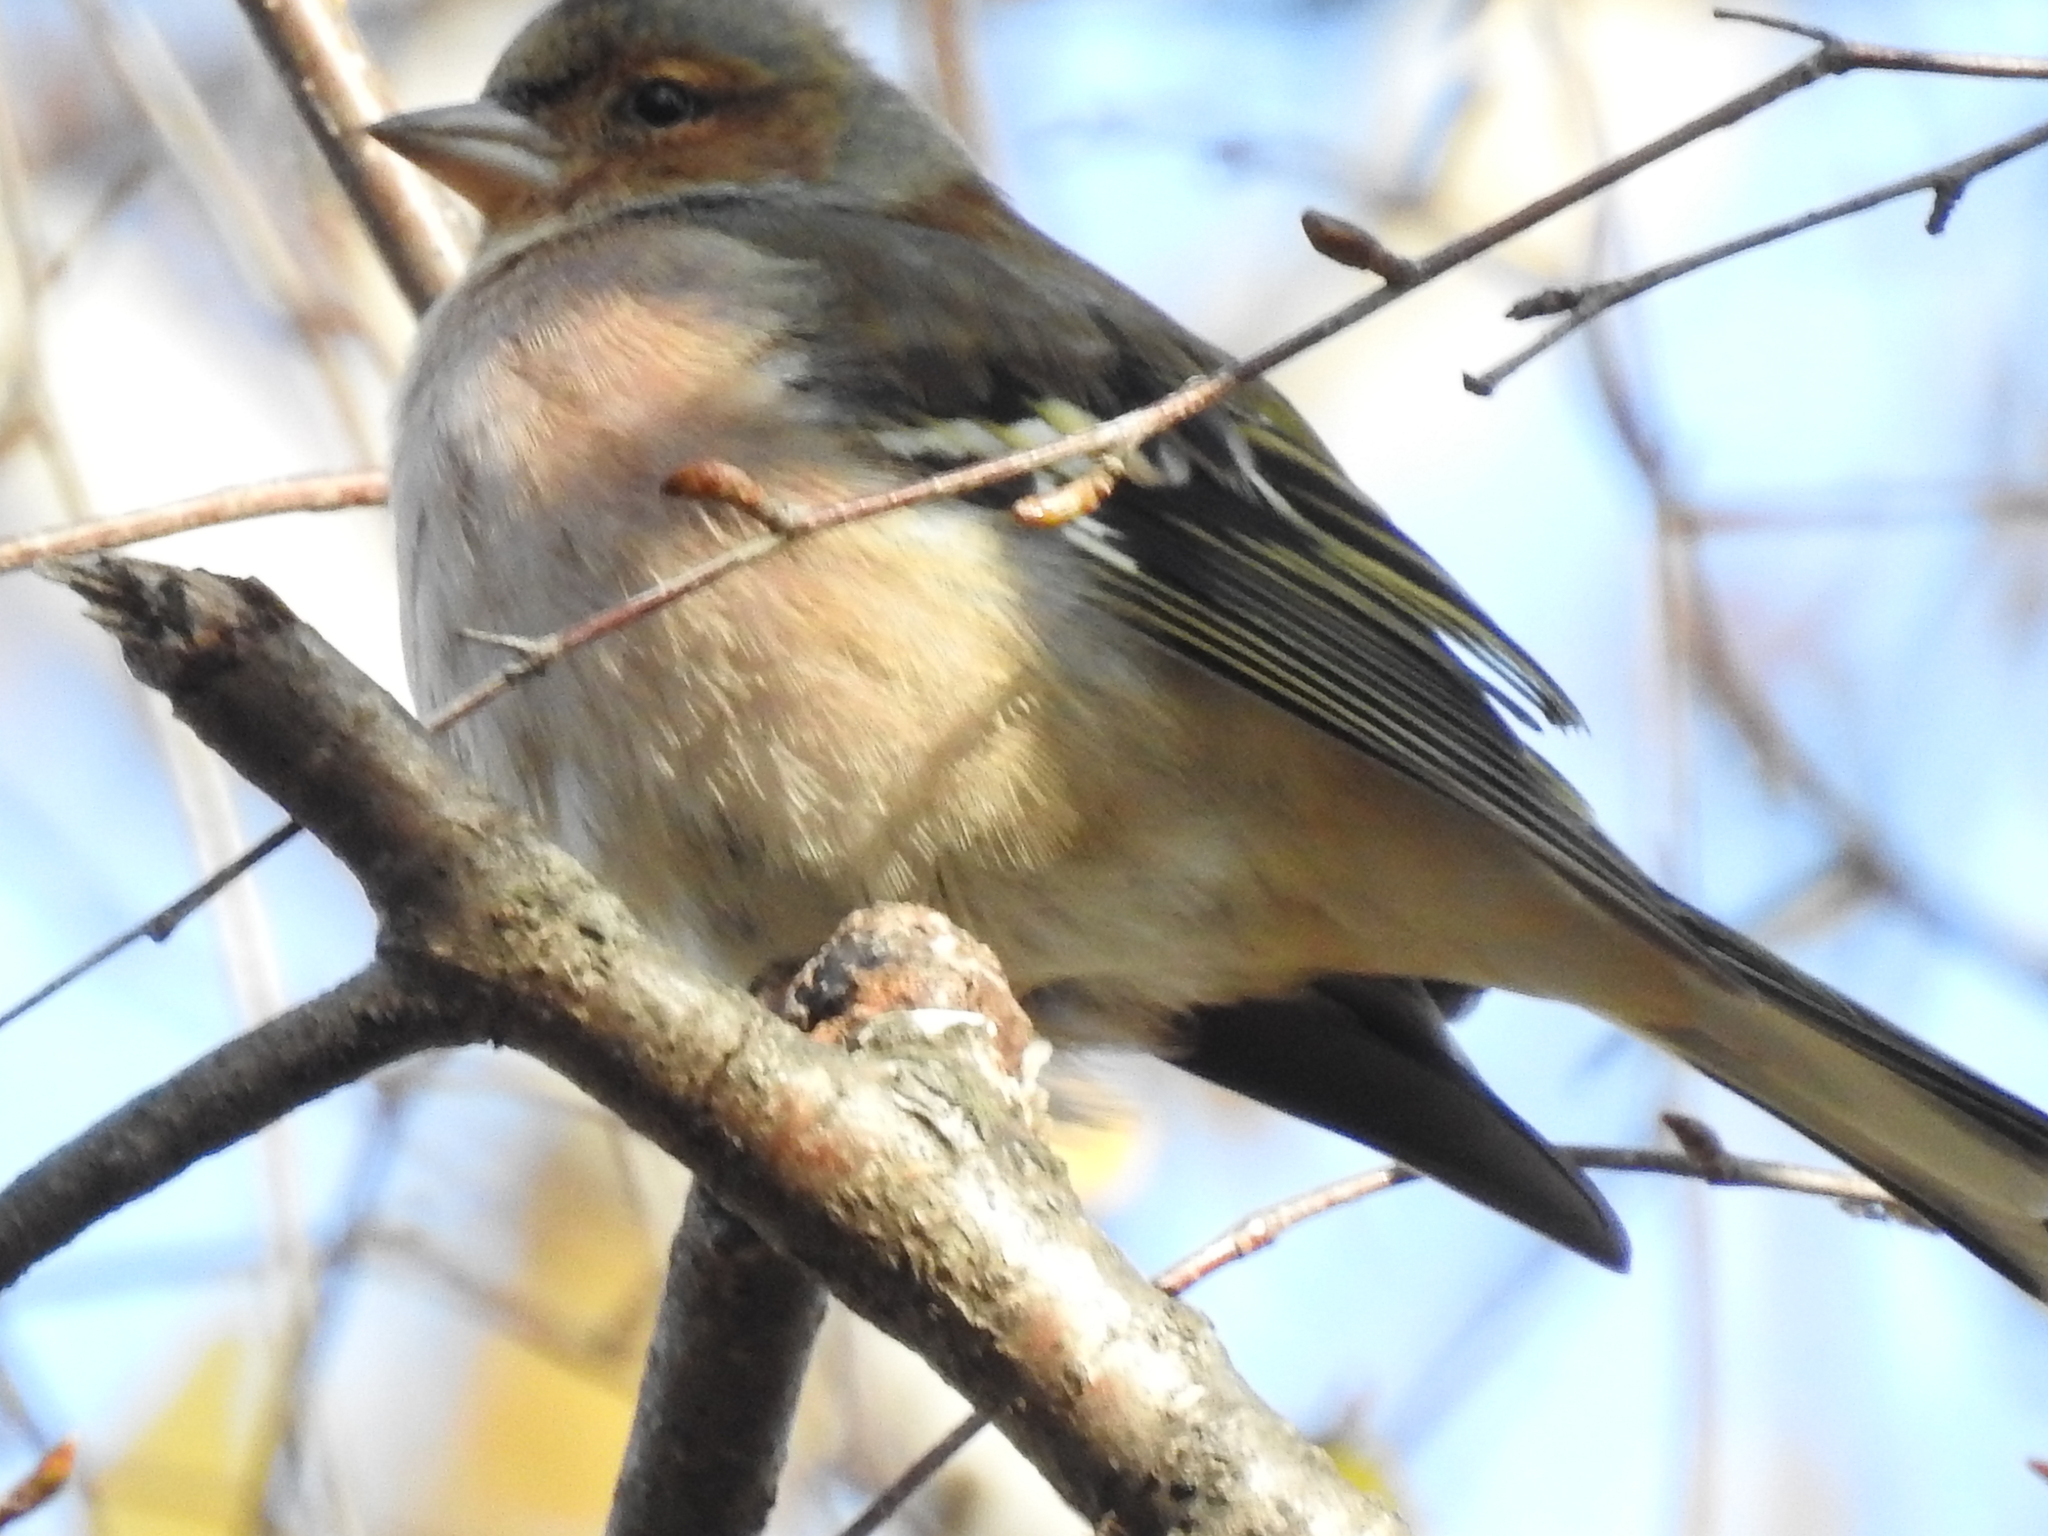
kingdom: Animalia
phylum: Chordata
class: Aves
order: Passeriformes
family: Fringillidae
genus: Fringilla
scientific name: Fringilla coelebs
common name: Common chaffinch
